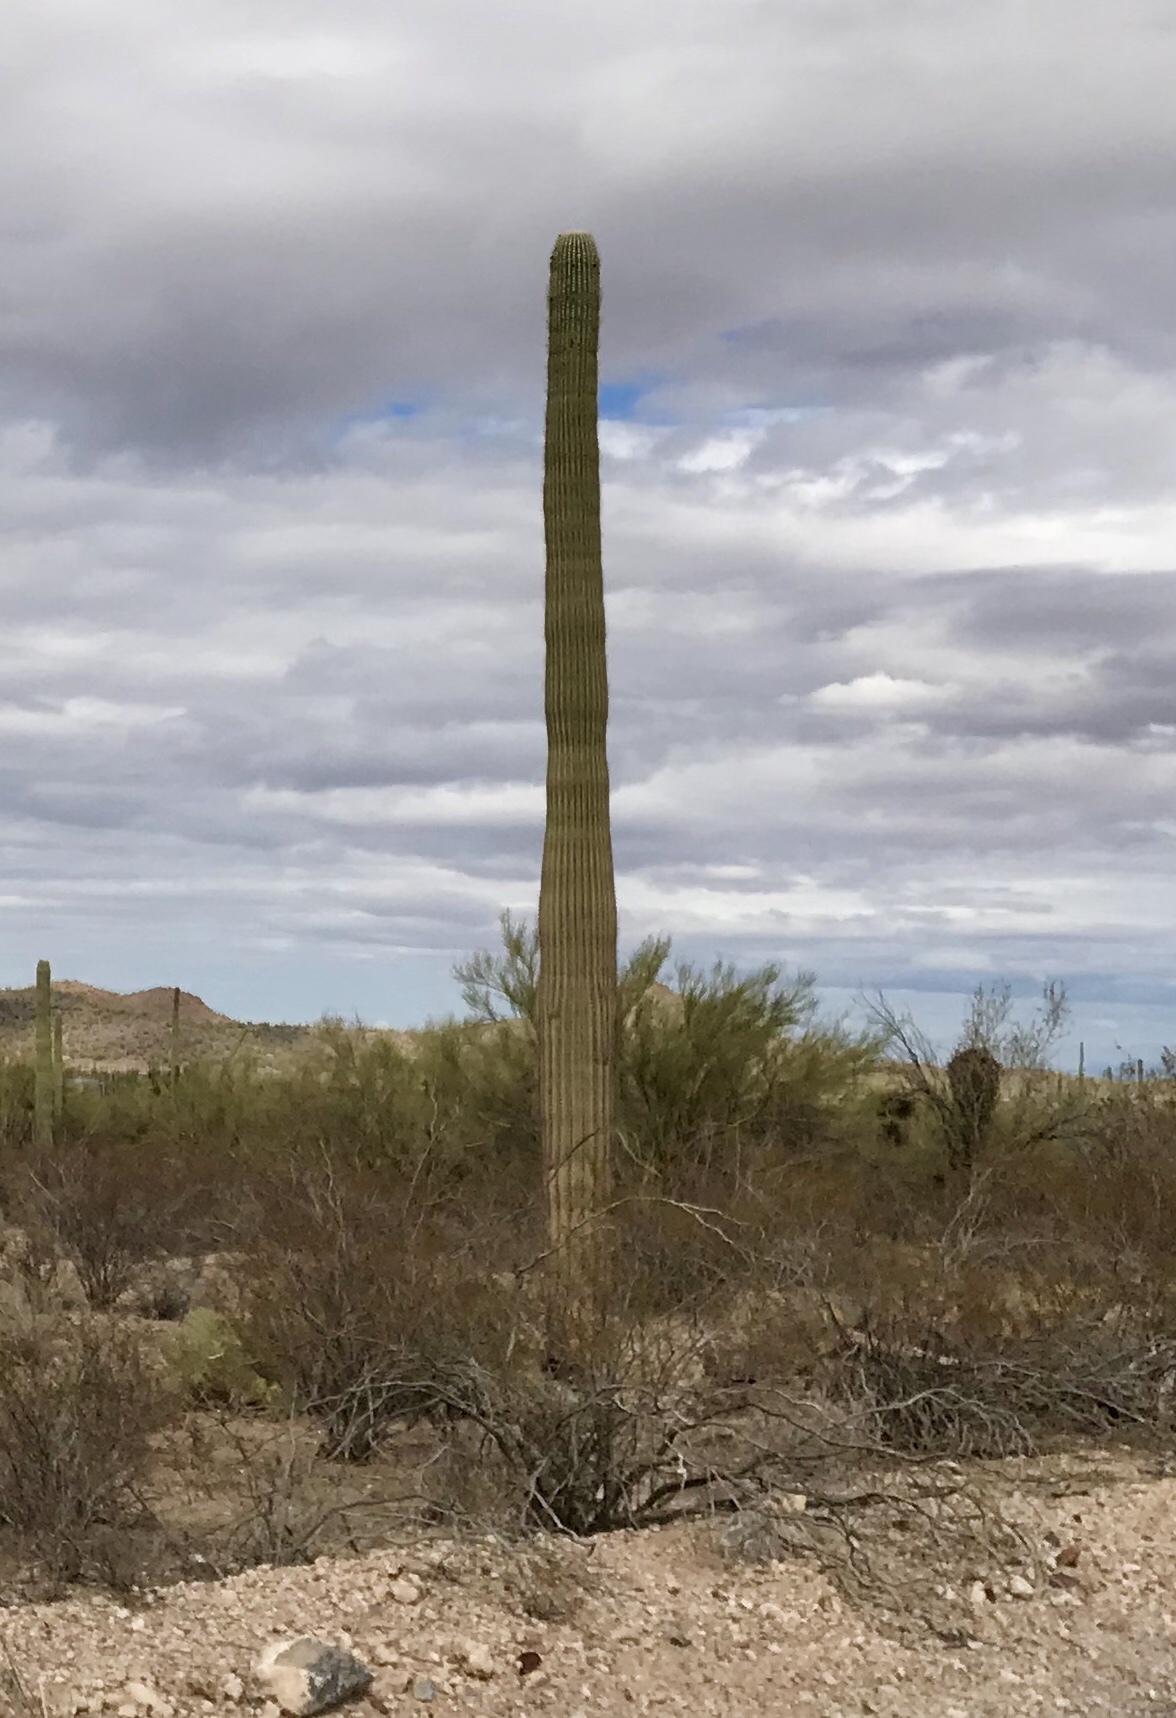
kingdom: Plantae
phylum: Tracheophyta
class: Magnoliopsida
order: Caryophyllales
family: Cactaceae
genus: Carnegiea
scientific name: Carnegiea gigantea
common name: Saguaro
